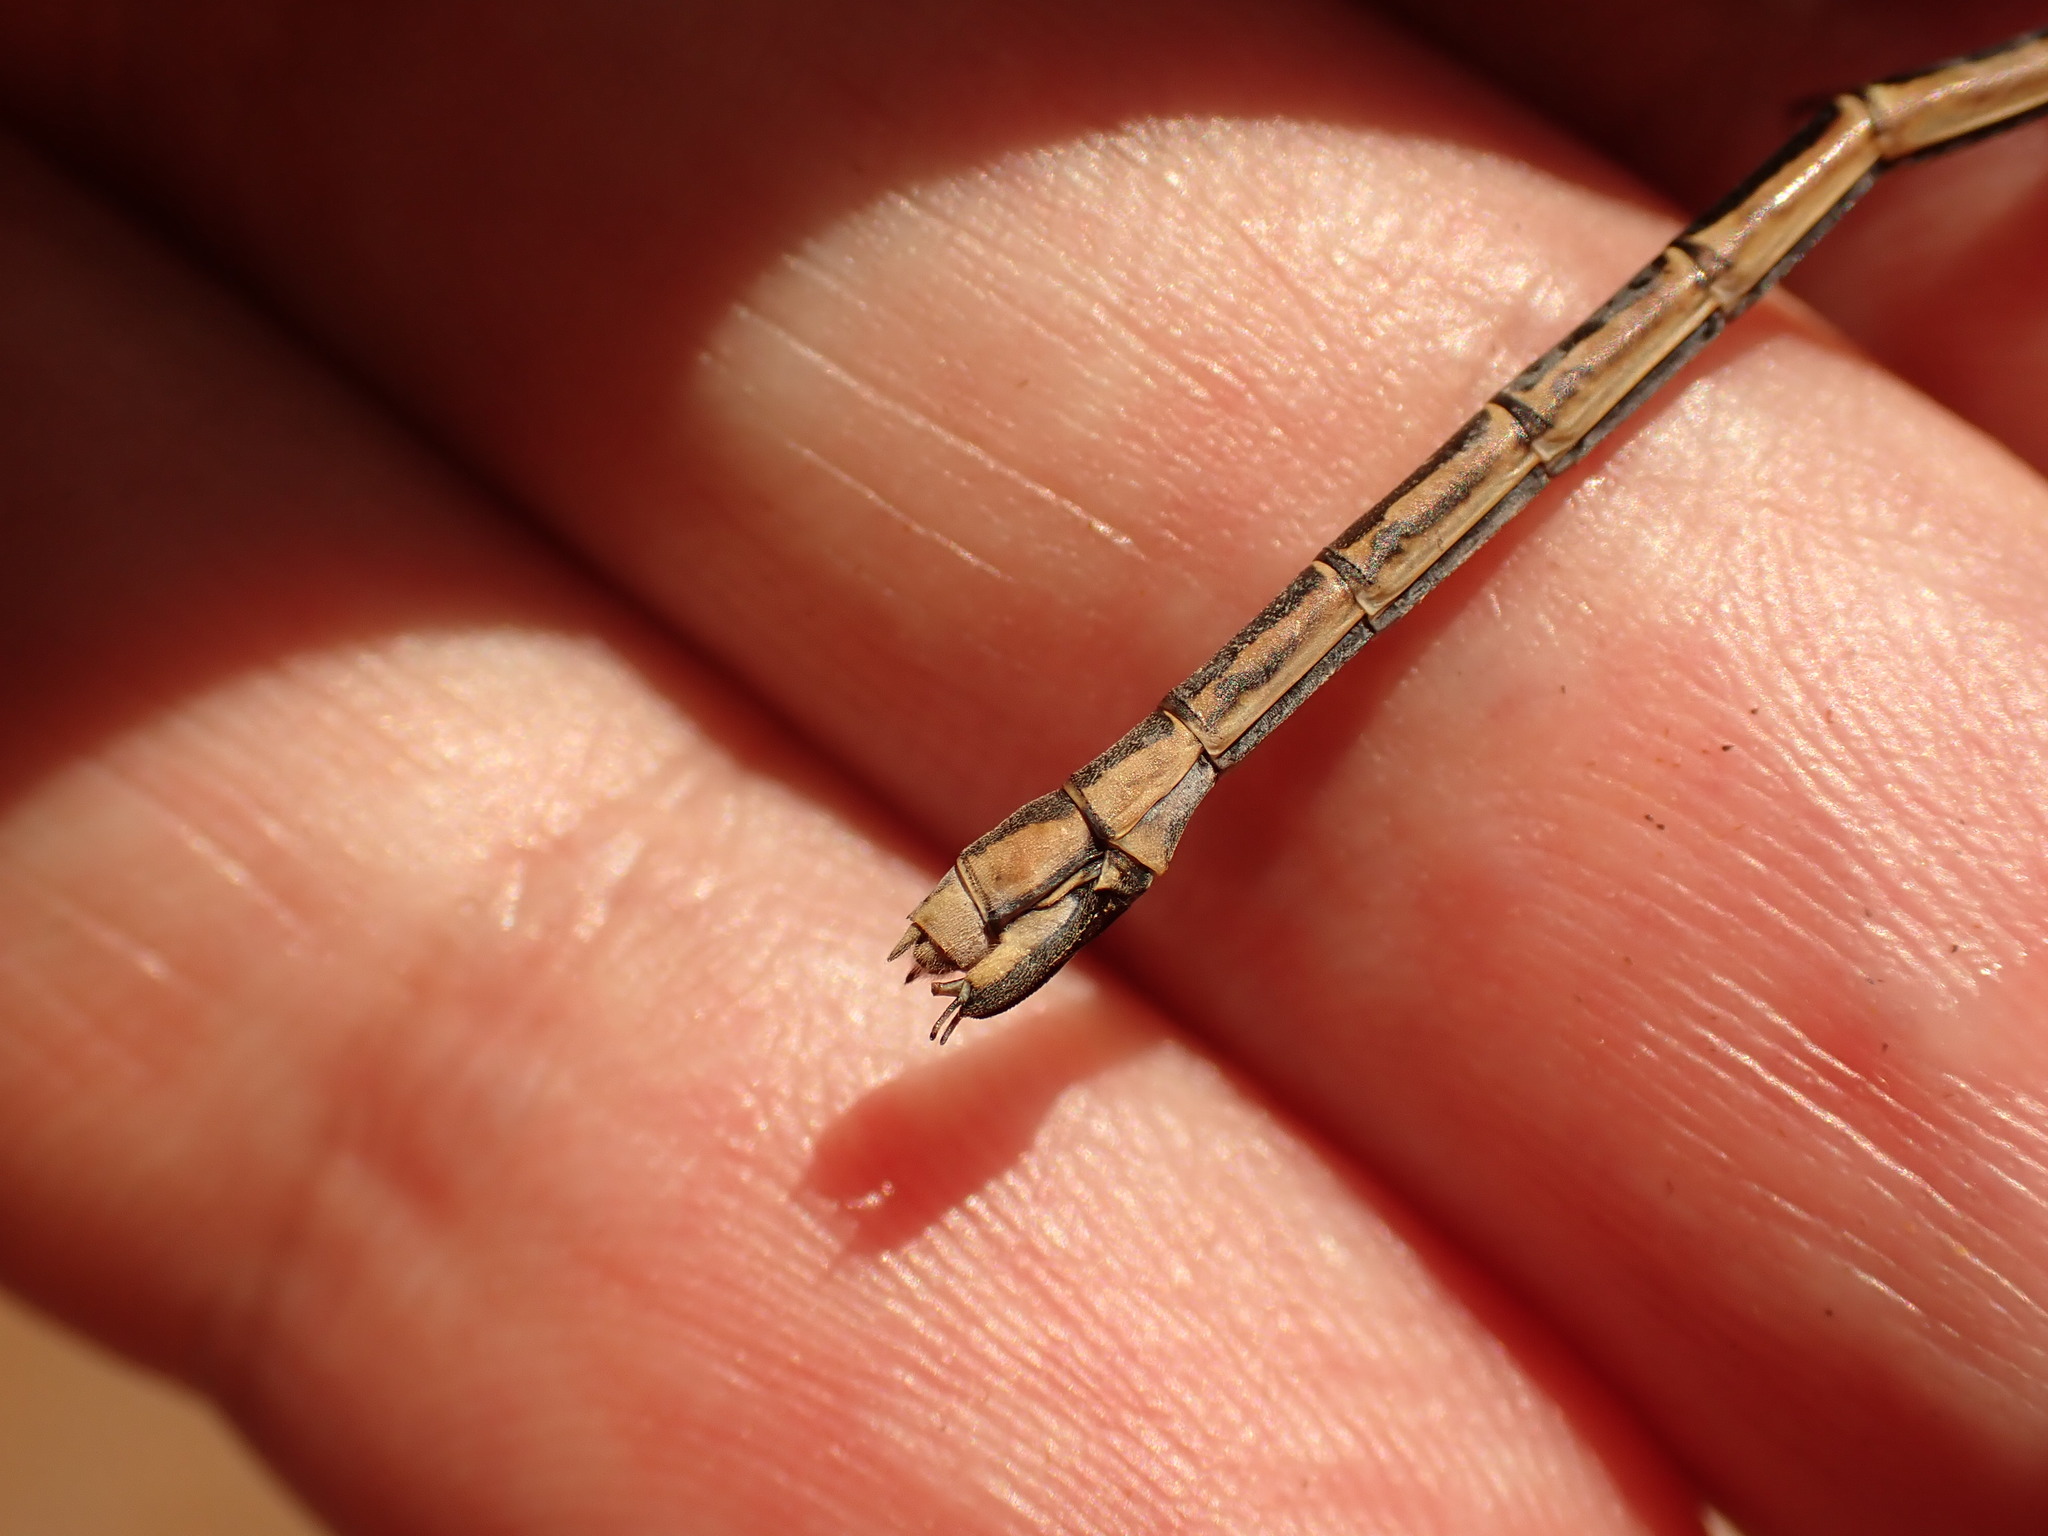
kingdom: Animalia
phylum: Arthropoda
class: Insecta
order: Odonata
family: Lestidae
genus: Lestes
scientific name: Lestes dryas
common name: Scarce emerald damselfly
